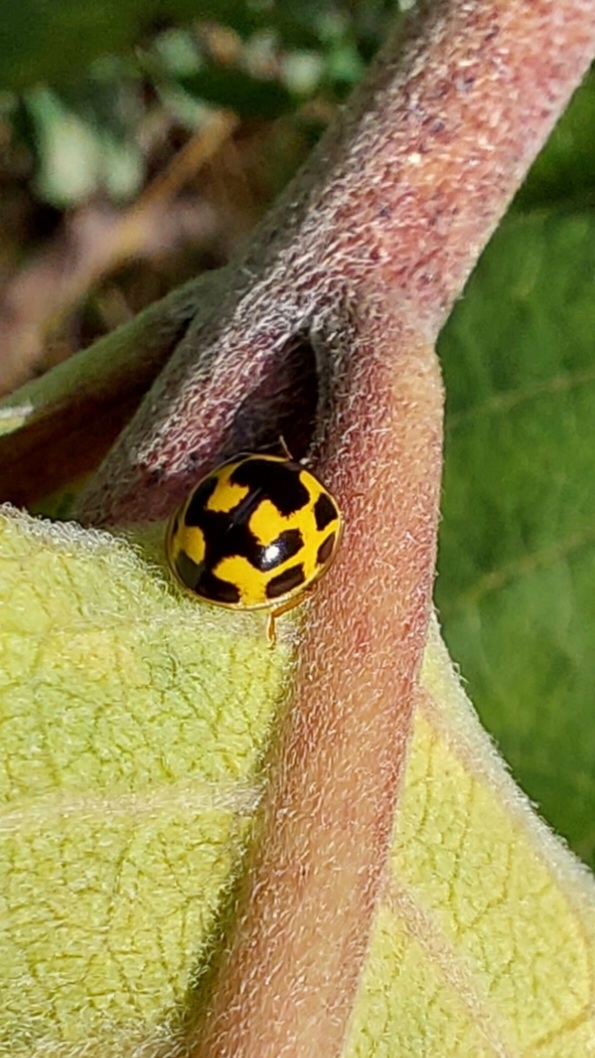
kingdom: Animalia
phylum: Arthropoda
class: Insecta
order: Coleoptera
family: Coccinellidae
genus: Propylaea
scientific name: Propylaea quatuordecimpunctata
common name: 14-spotted ladybird beetle
